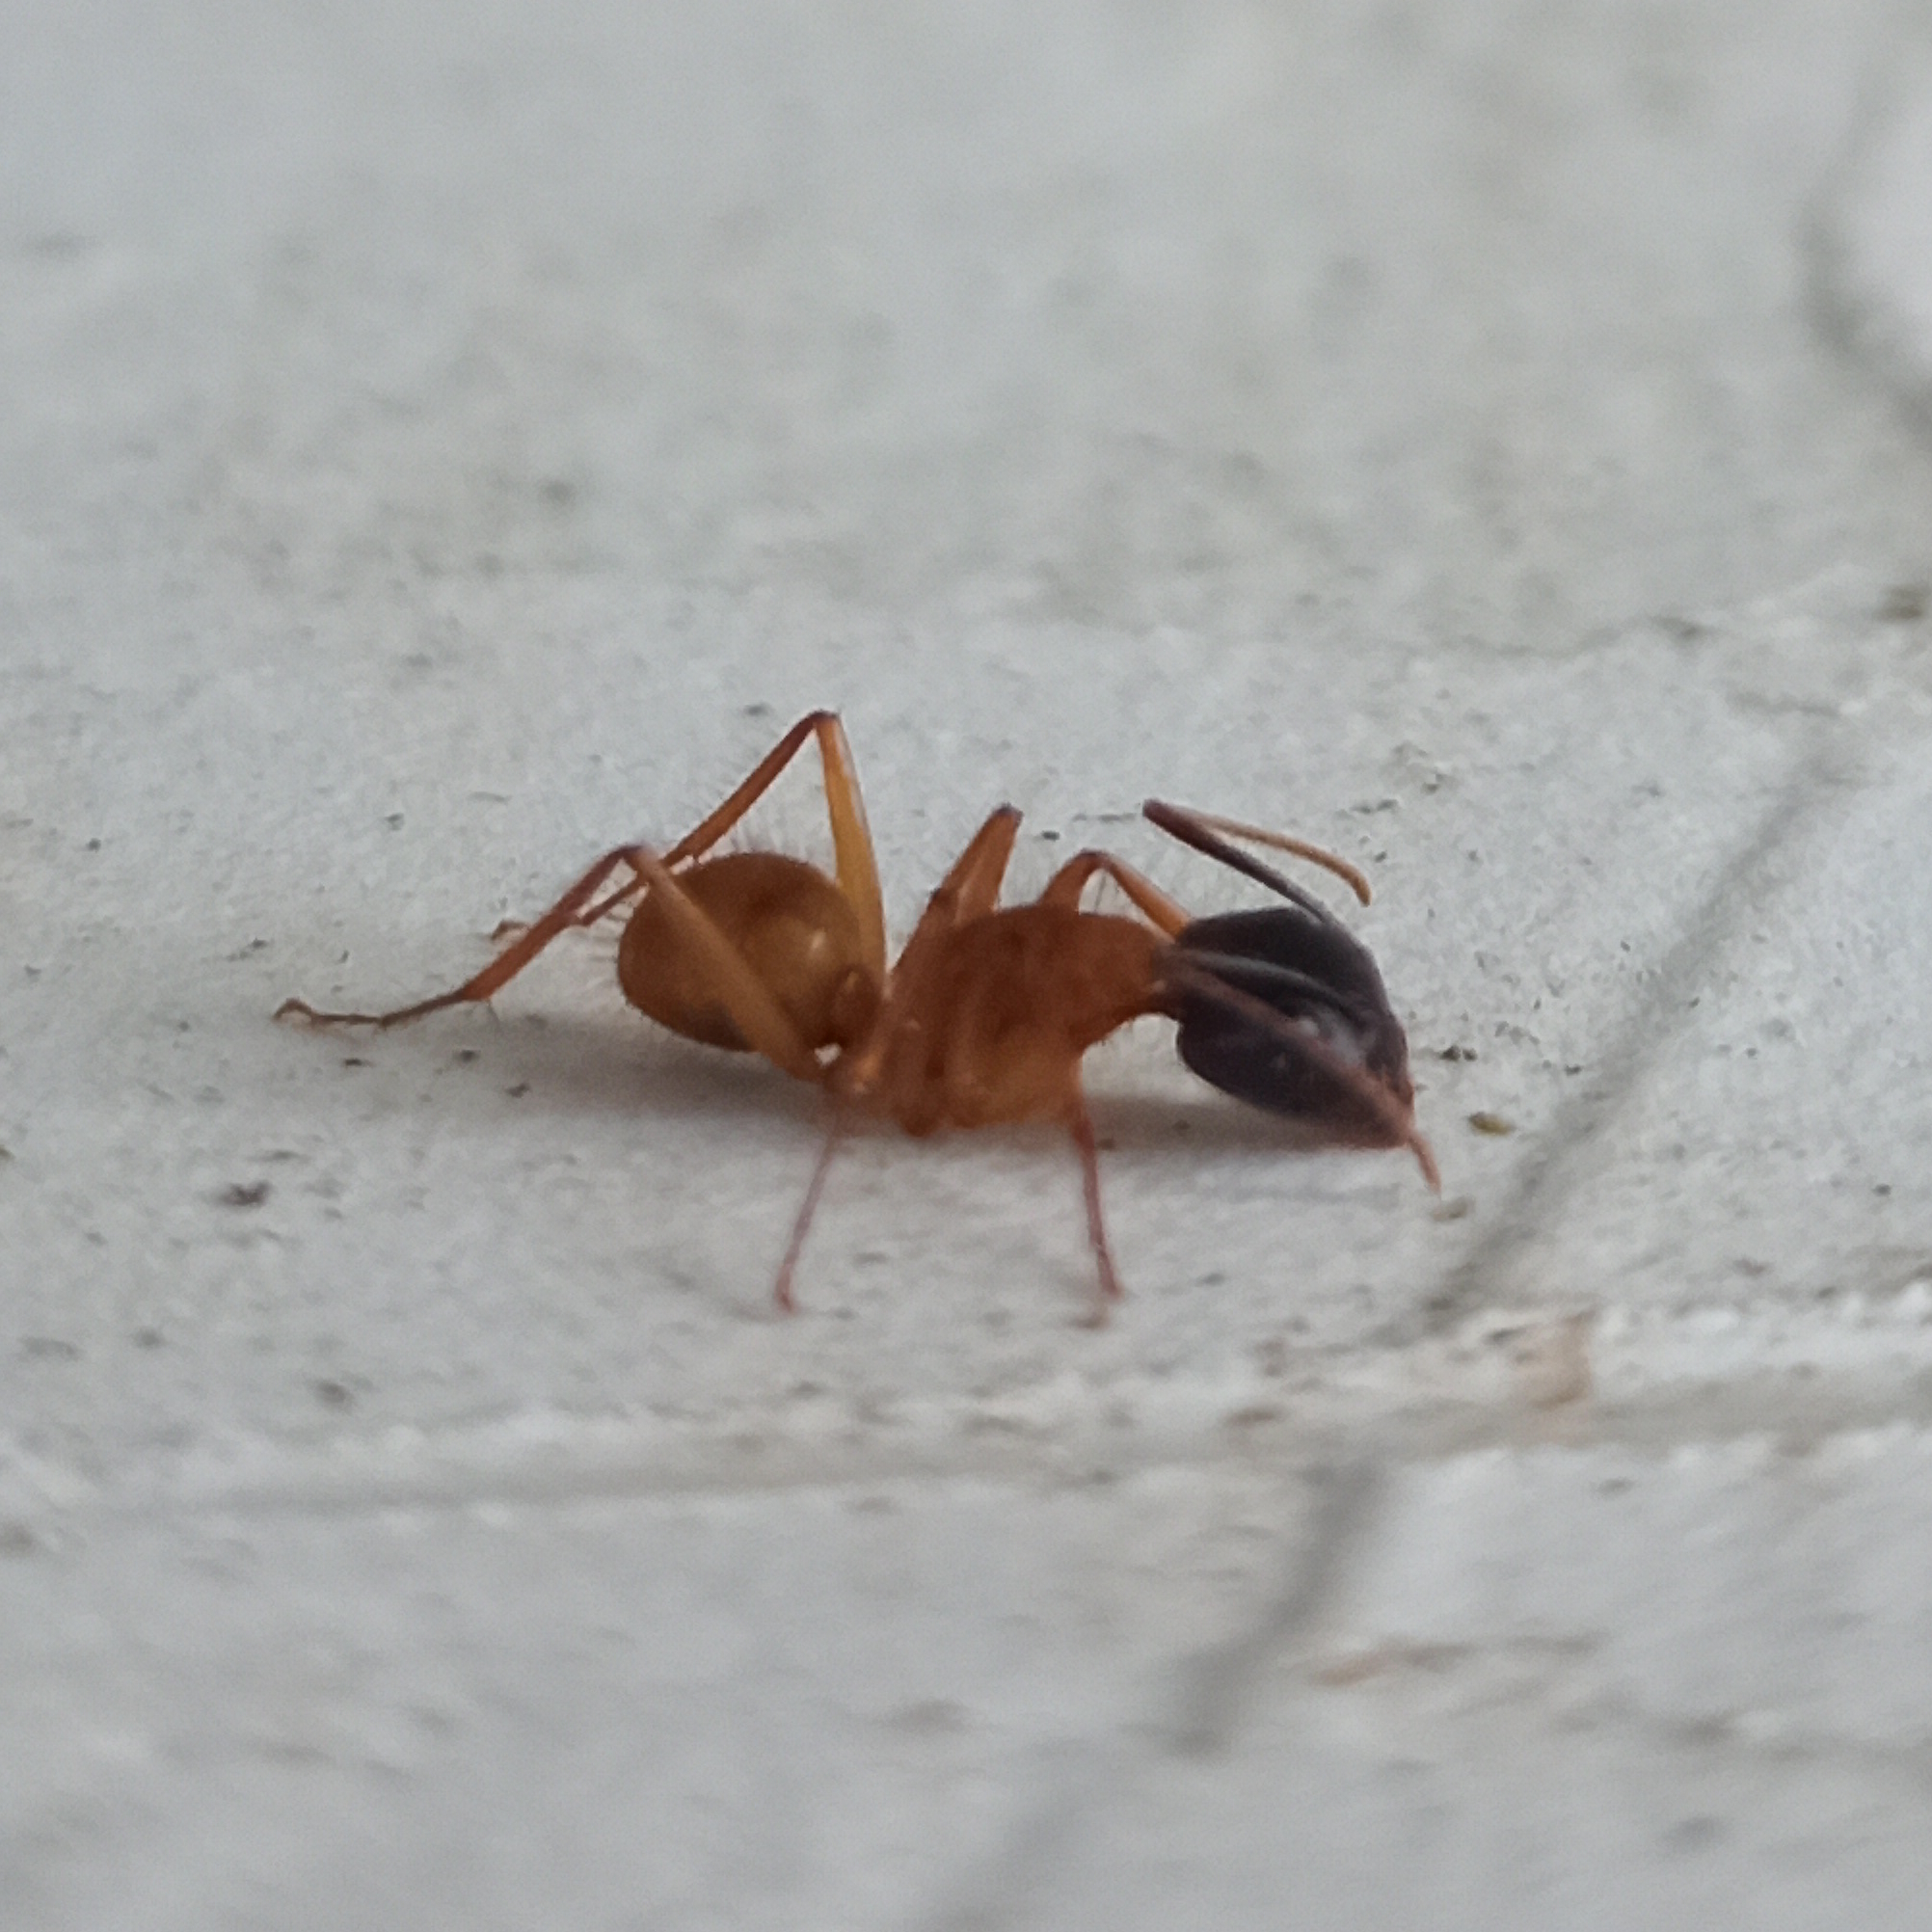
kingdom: Animalia
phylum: Arthropoda
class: Insecta
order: Hymenoptera
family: Formicidae
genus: Camponotus
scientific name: Camponotus atriceps
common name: Florida carpenter ant
